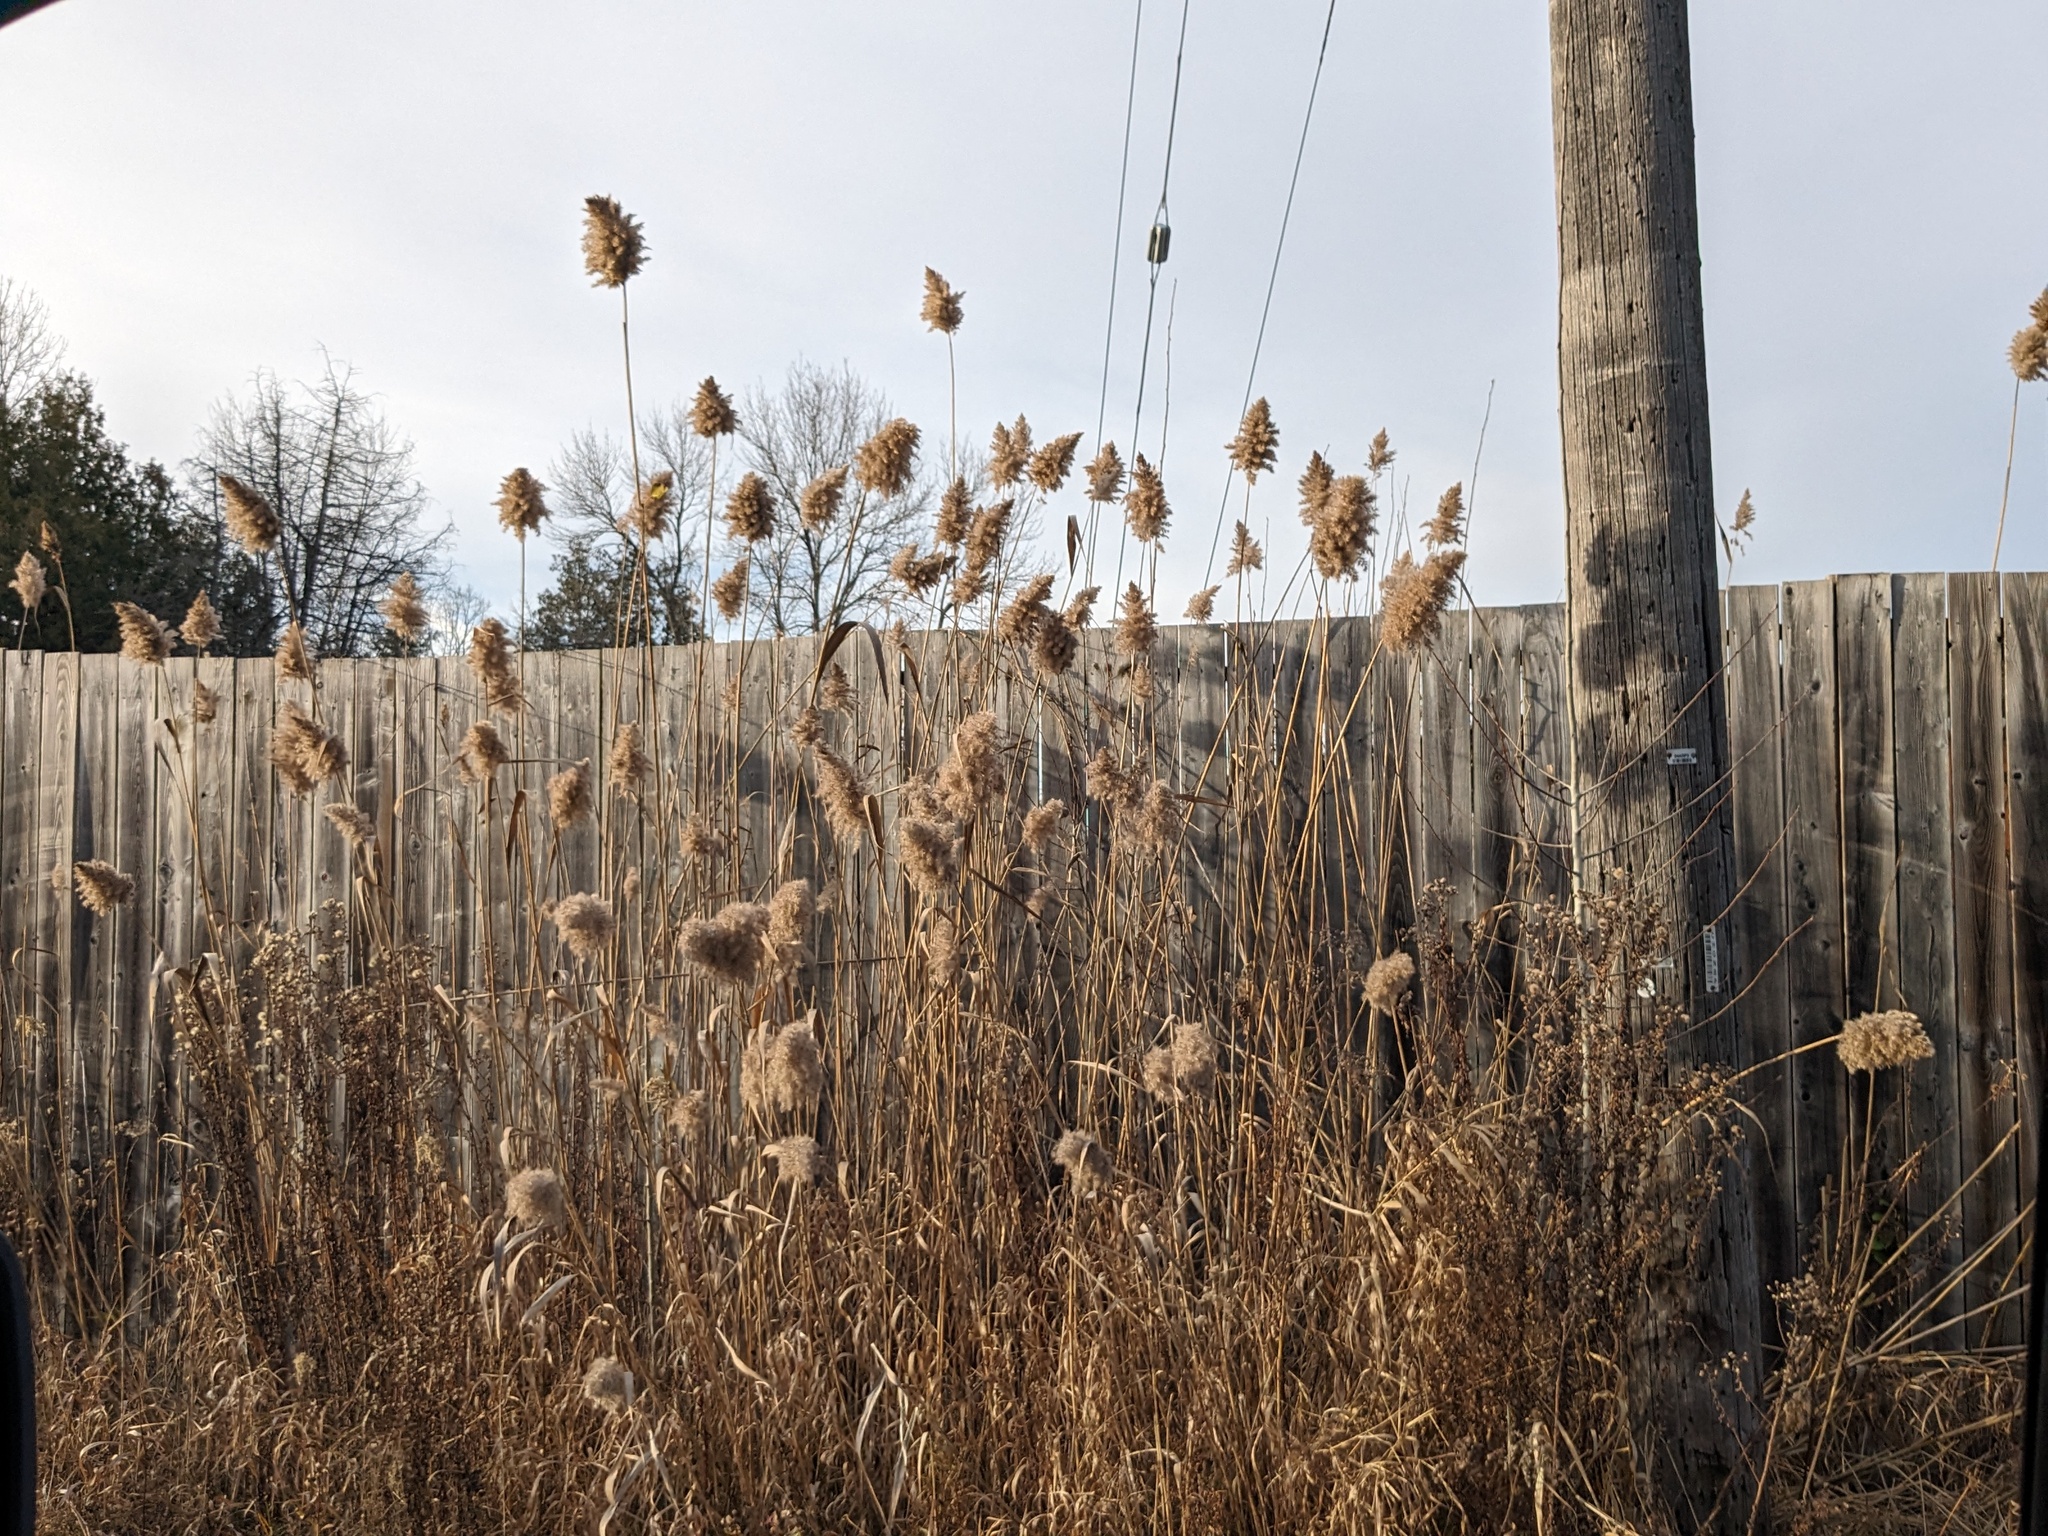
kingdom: Plantae
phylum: Tracheophyta
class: Liliopsida
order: Poales
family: Poaceae
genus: Phragmites
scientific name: Phragmites australis
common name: Common reed
